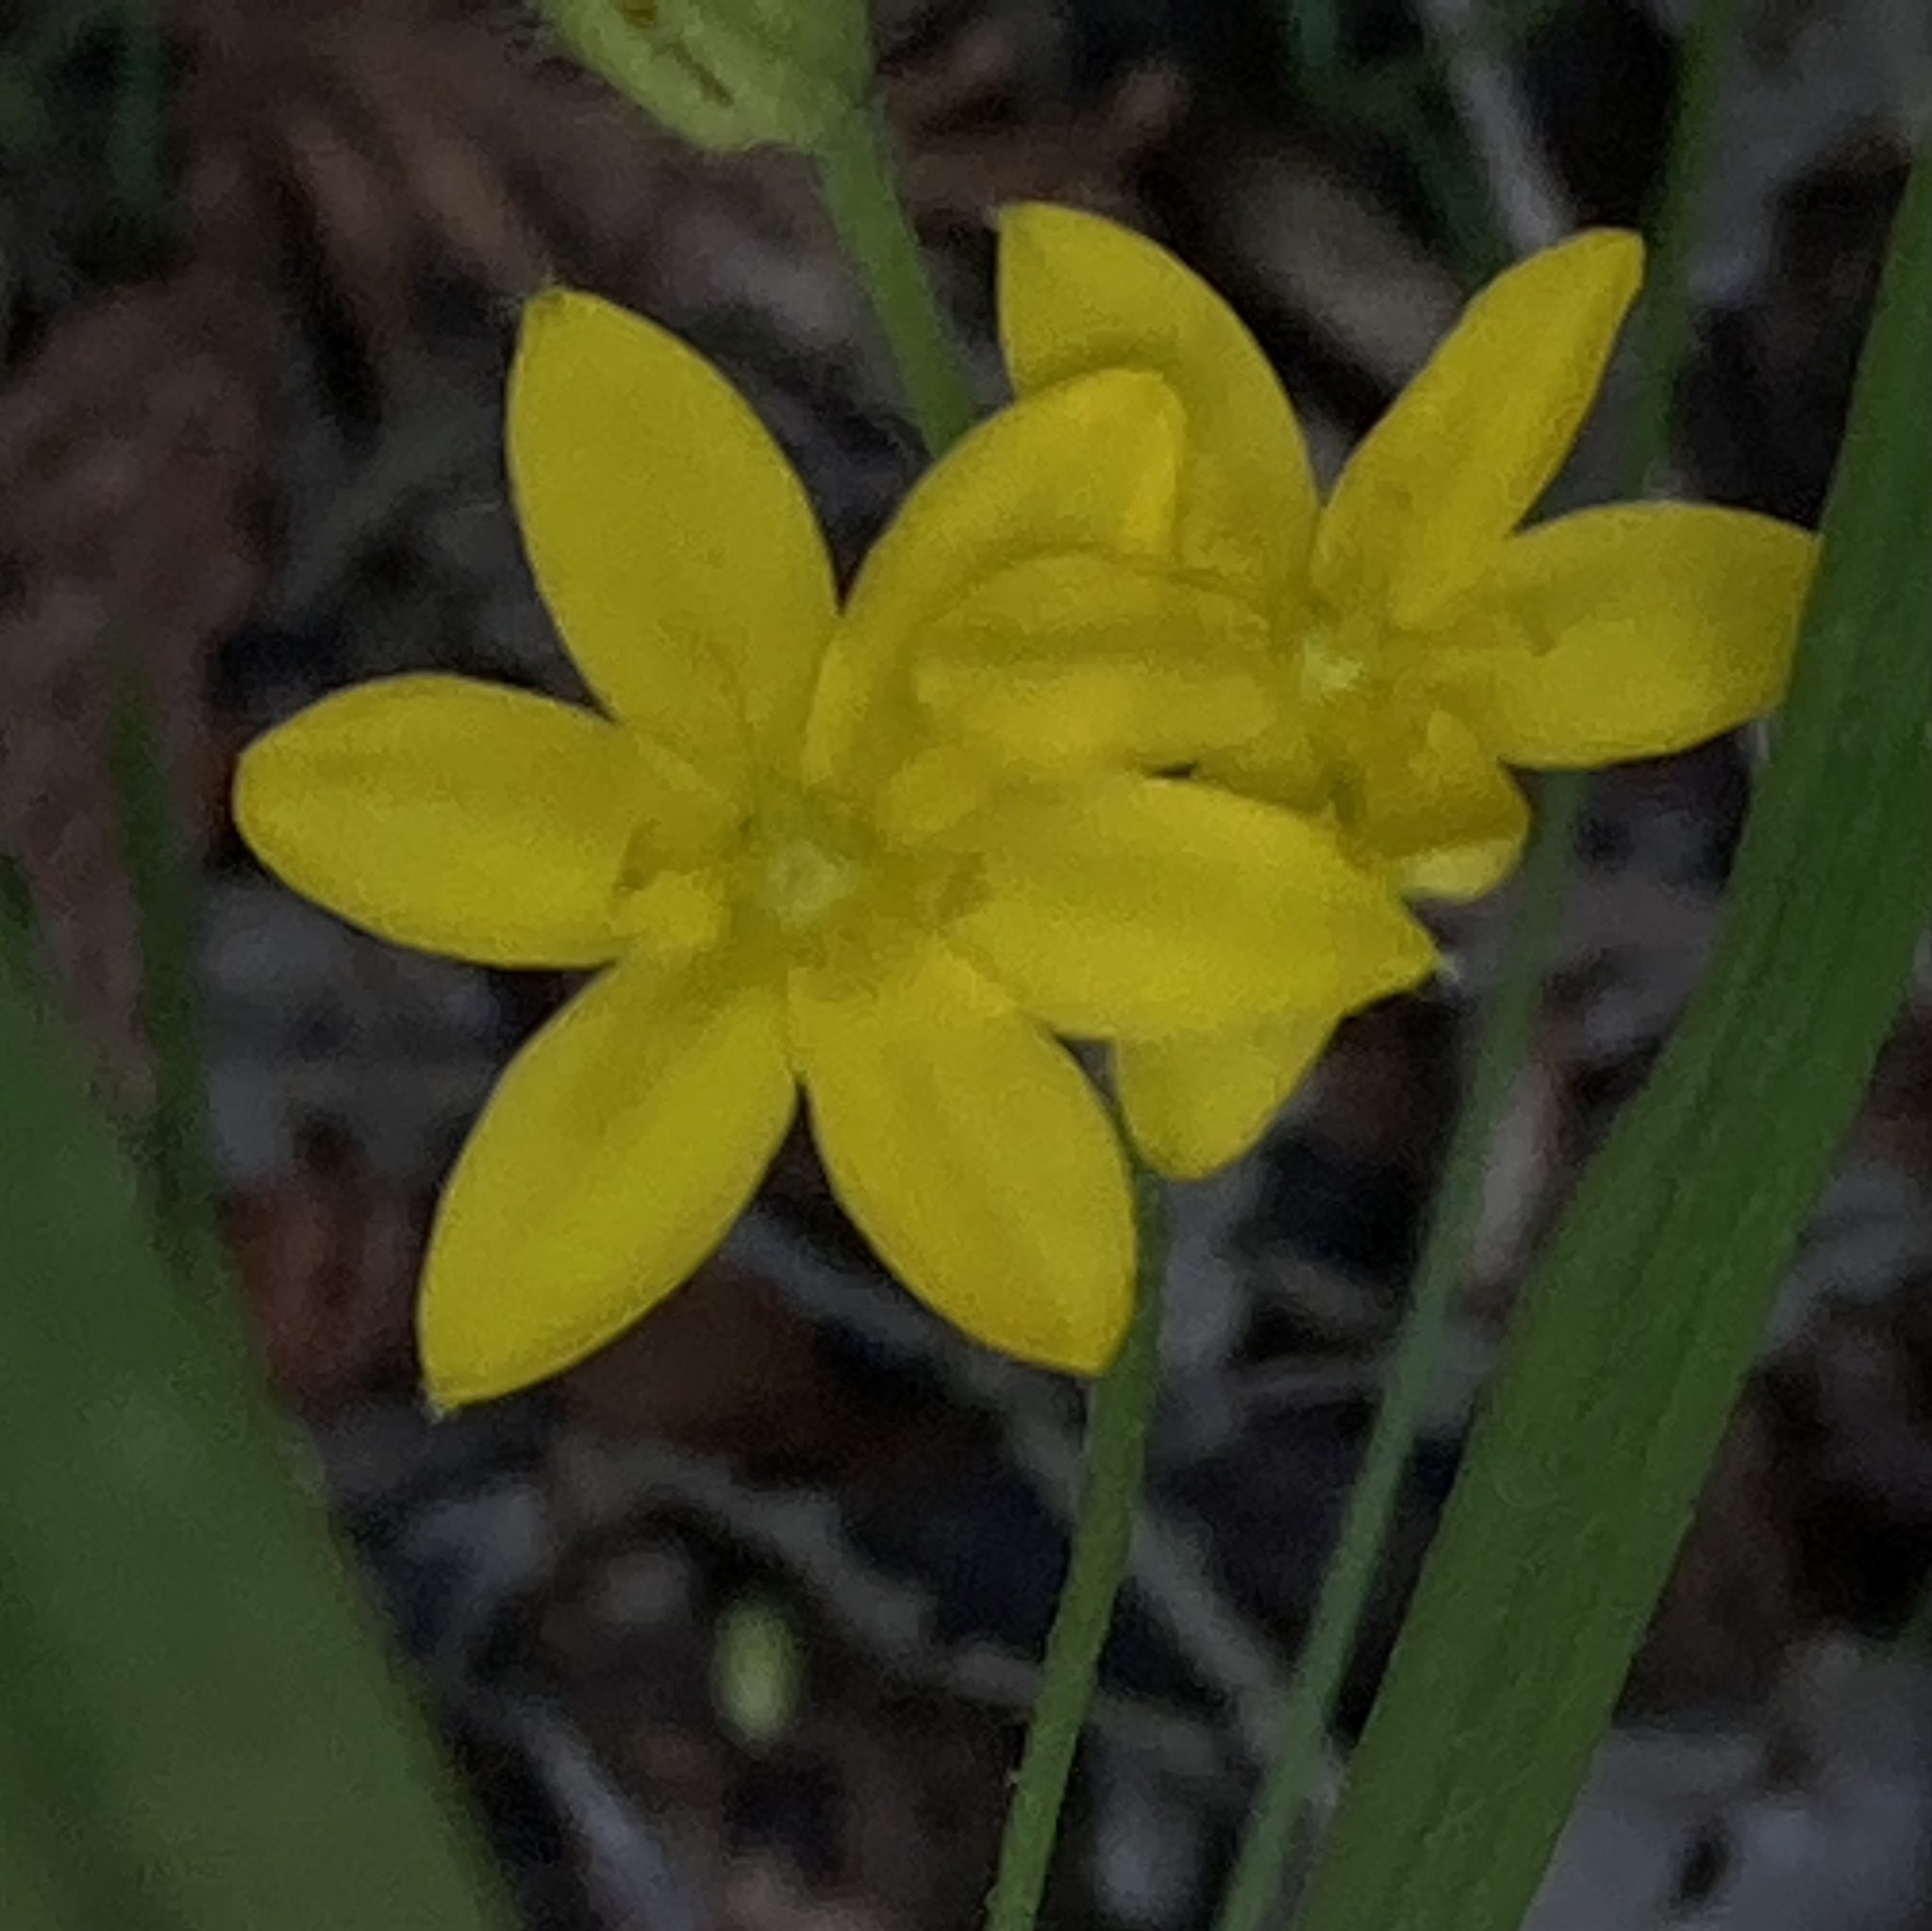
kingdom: Plantae
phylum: Tracheophyta
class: Liliopsida
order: Asparagales
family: Hypoxidaceae
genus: Hypoxis
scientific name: Hypoxis hirsuta
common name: Common goldstar
